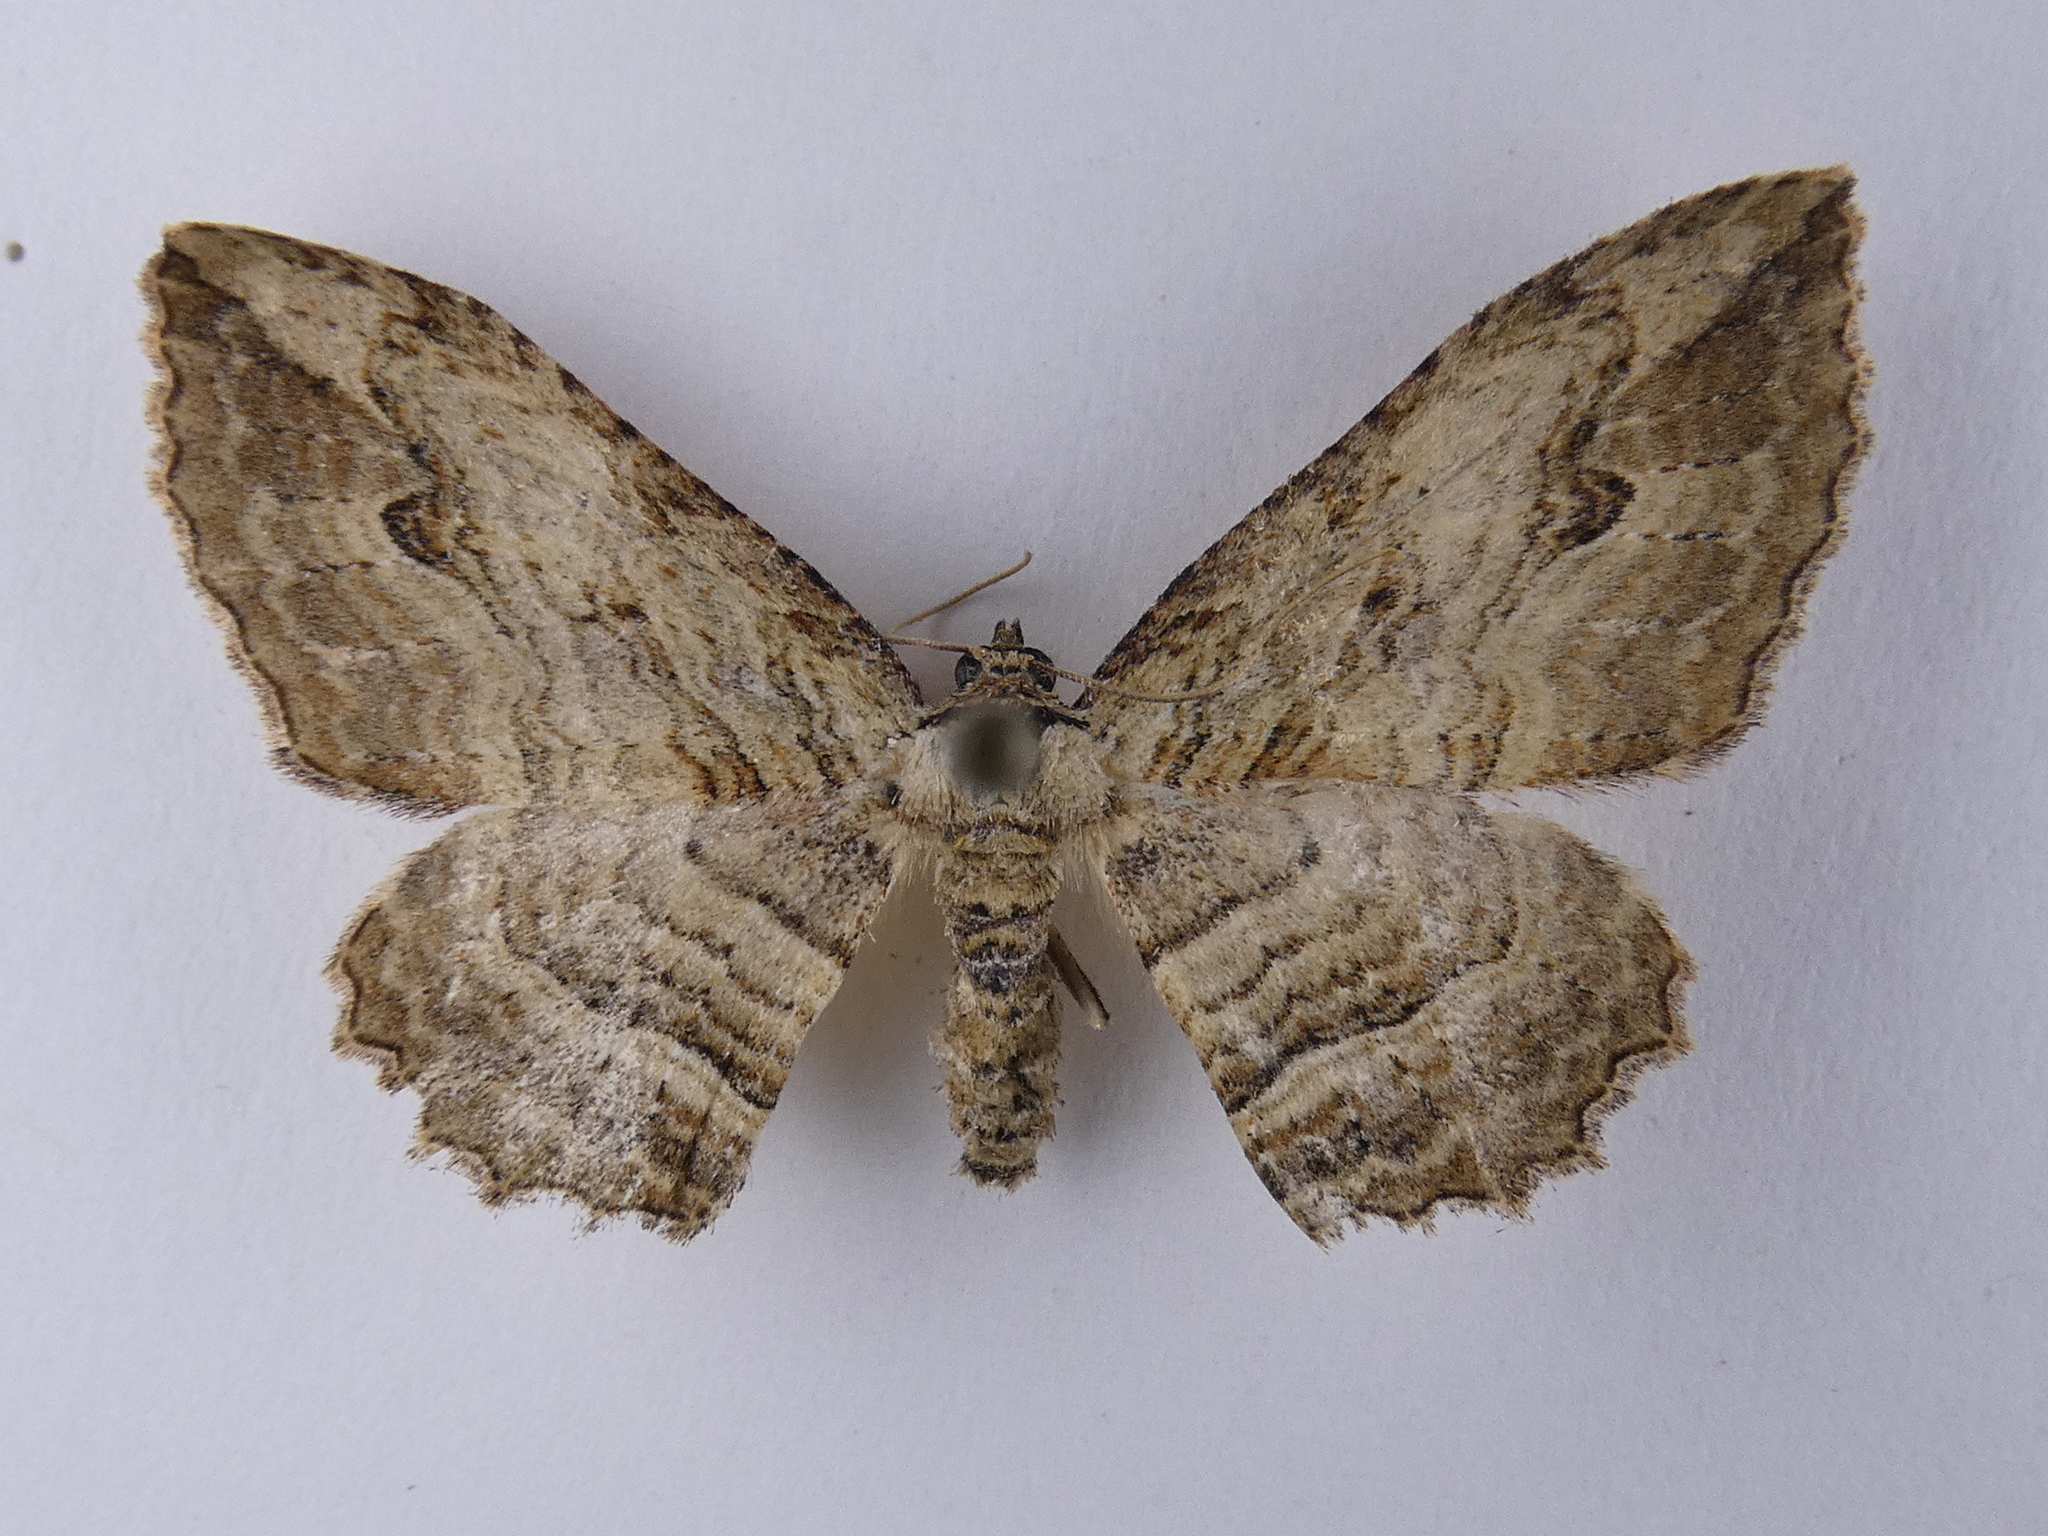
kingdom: Animalia
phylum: Arthropoda
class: Insecta
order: Lepidoptera
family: Geometridae
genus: Austrocidaria
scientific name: Austrocidaria bipartita
